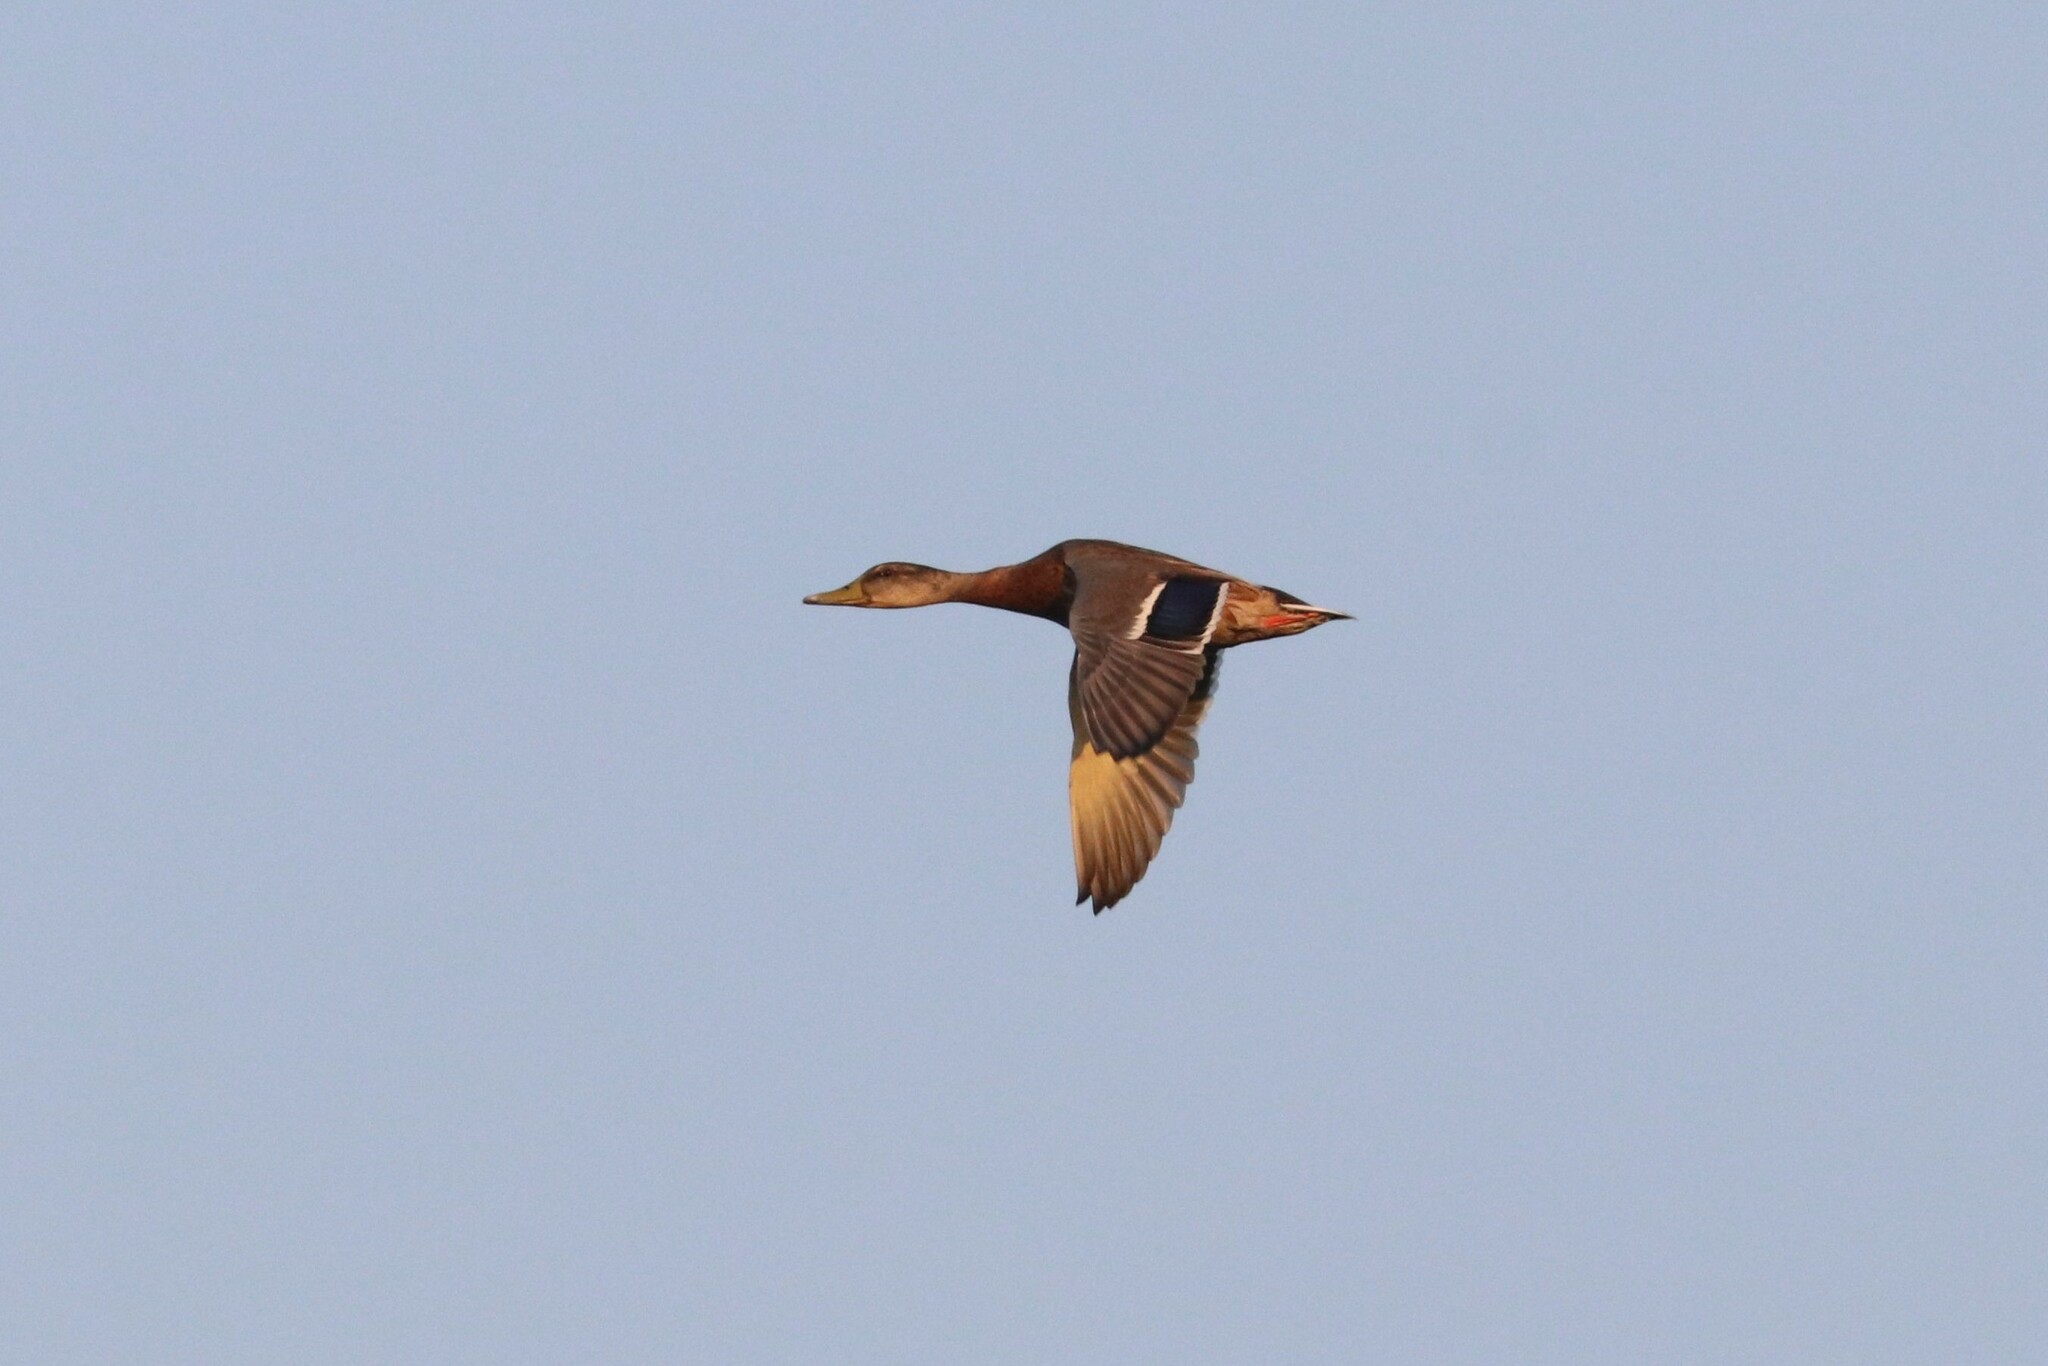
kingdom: Animalia
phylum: Chordata
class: Aves
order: Anseriformes
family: Anatidae
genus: Anas
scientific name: Anas platyrhynchos
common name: Mallard
